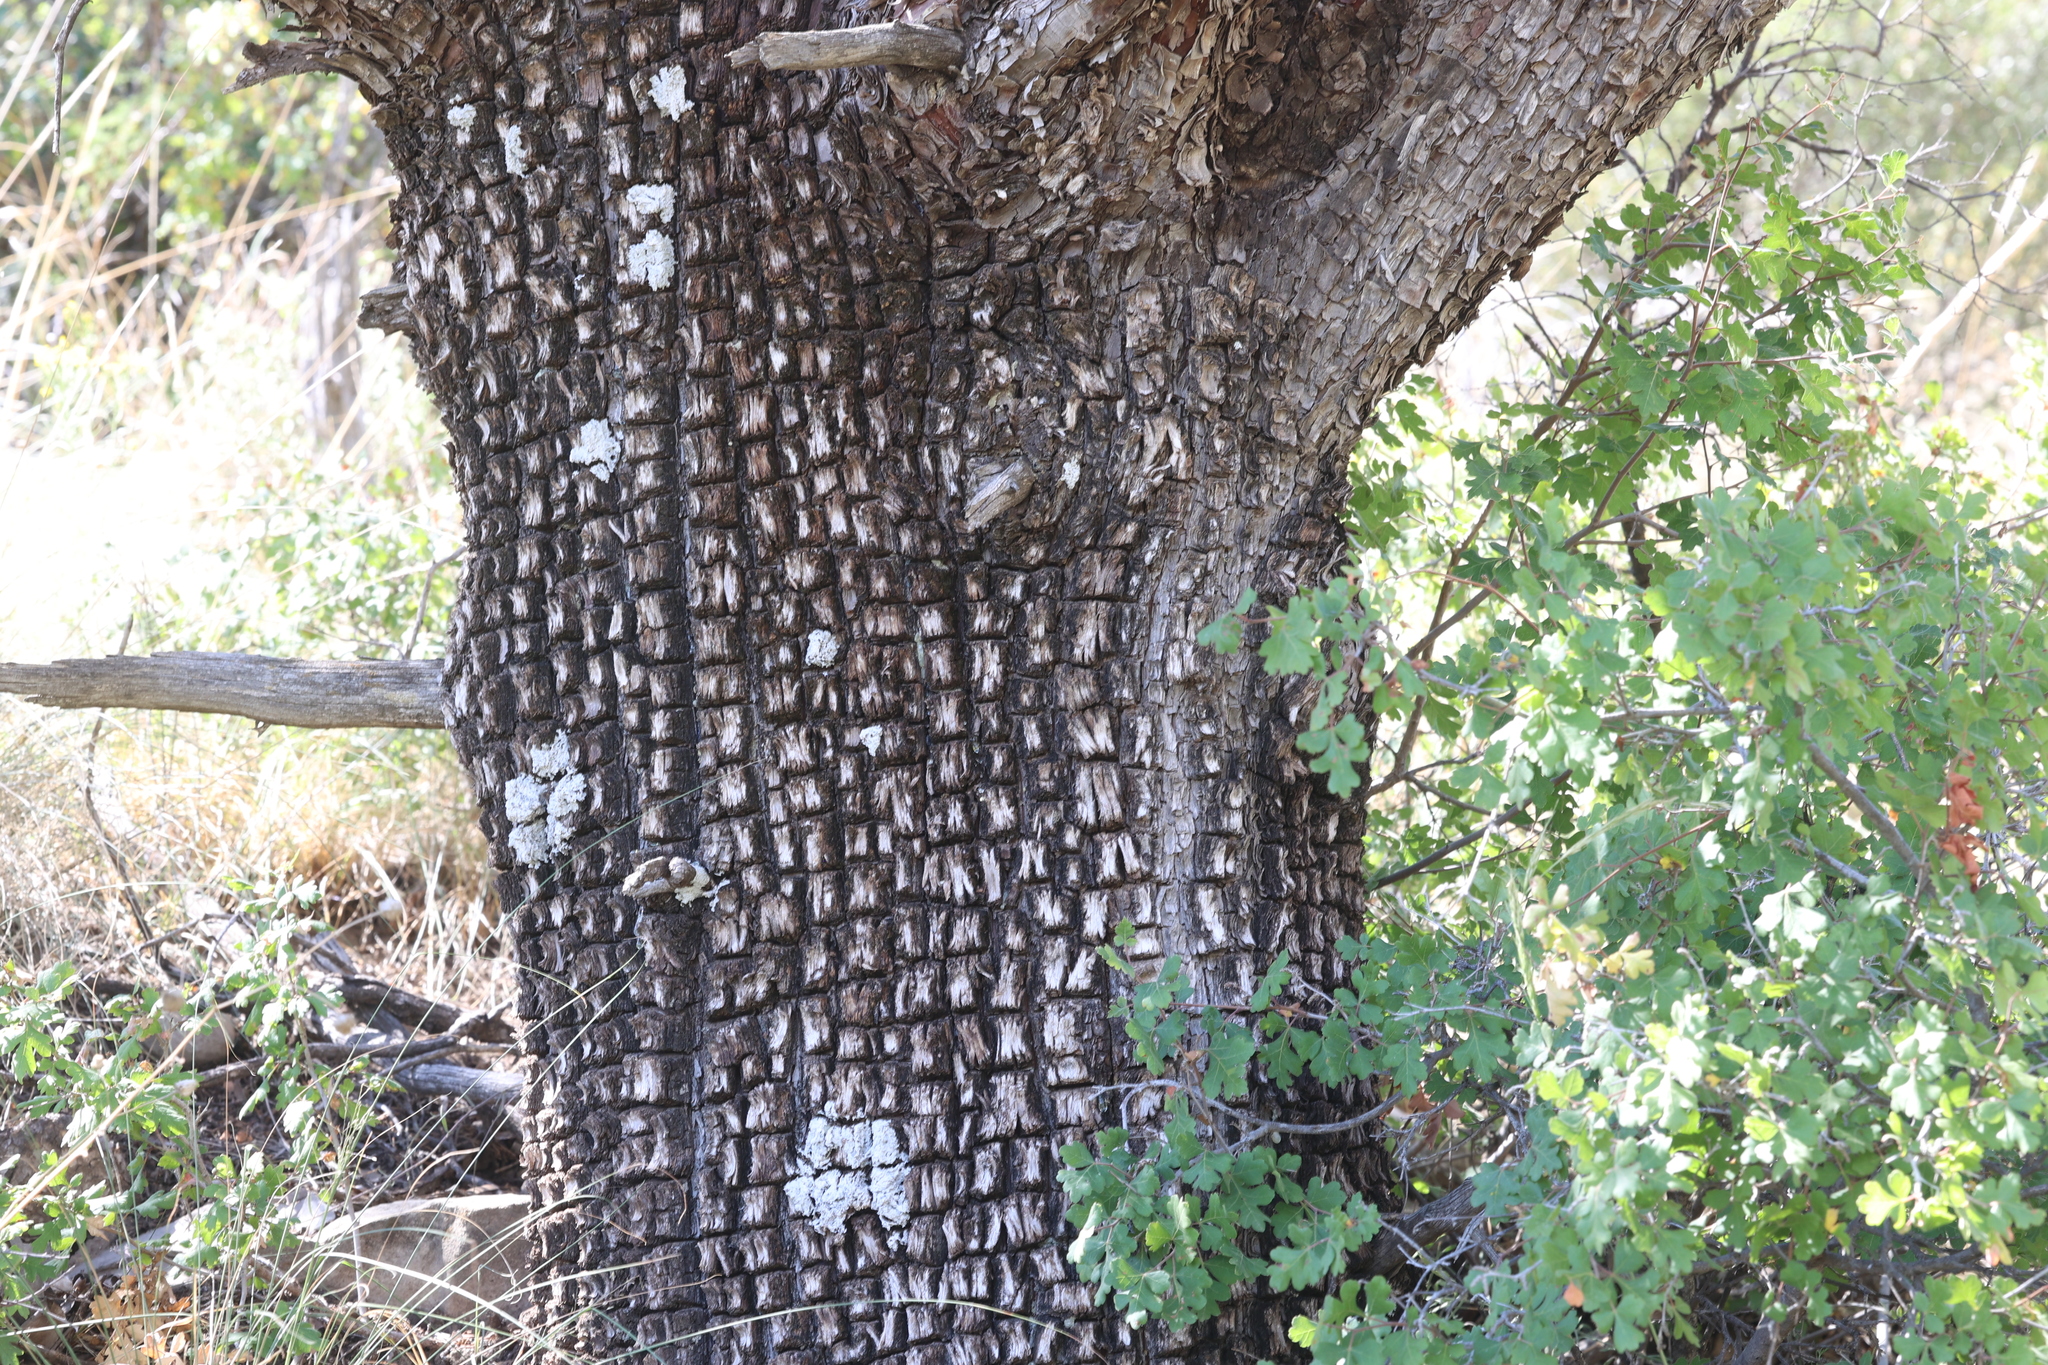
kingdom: Plantae
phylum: Tracheophyta
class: Pinopsida
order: Pinales
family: Cupressaceae
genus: Juniperus
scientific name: Juniperus deppeana
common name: Alligator juniper
